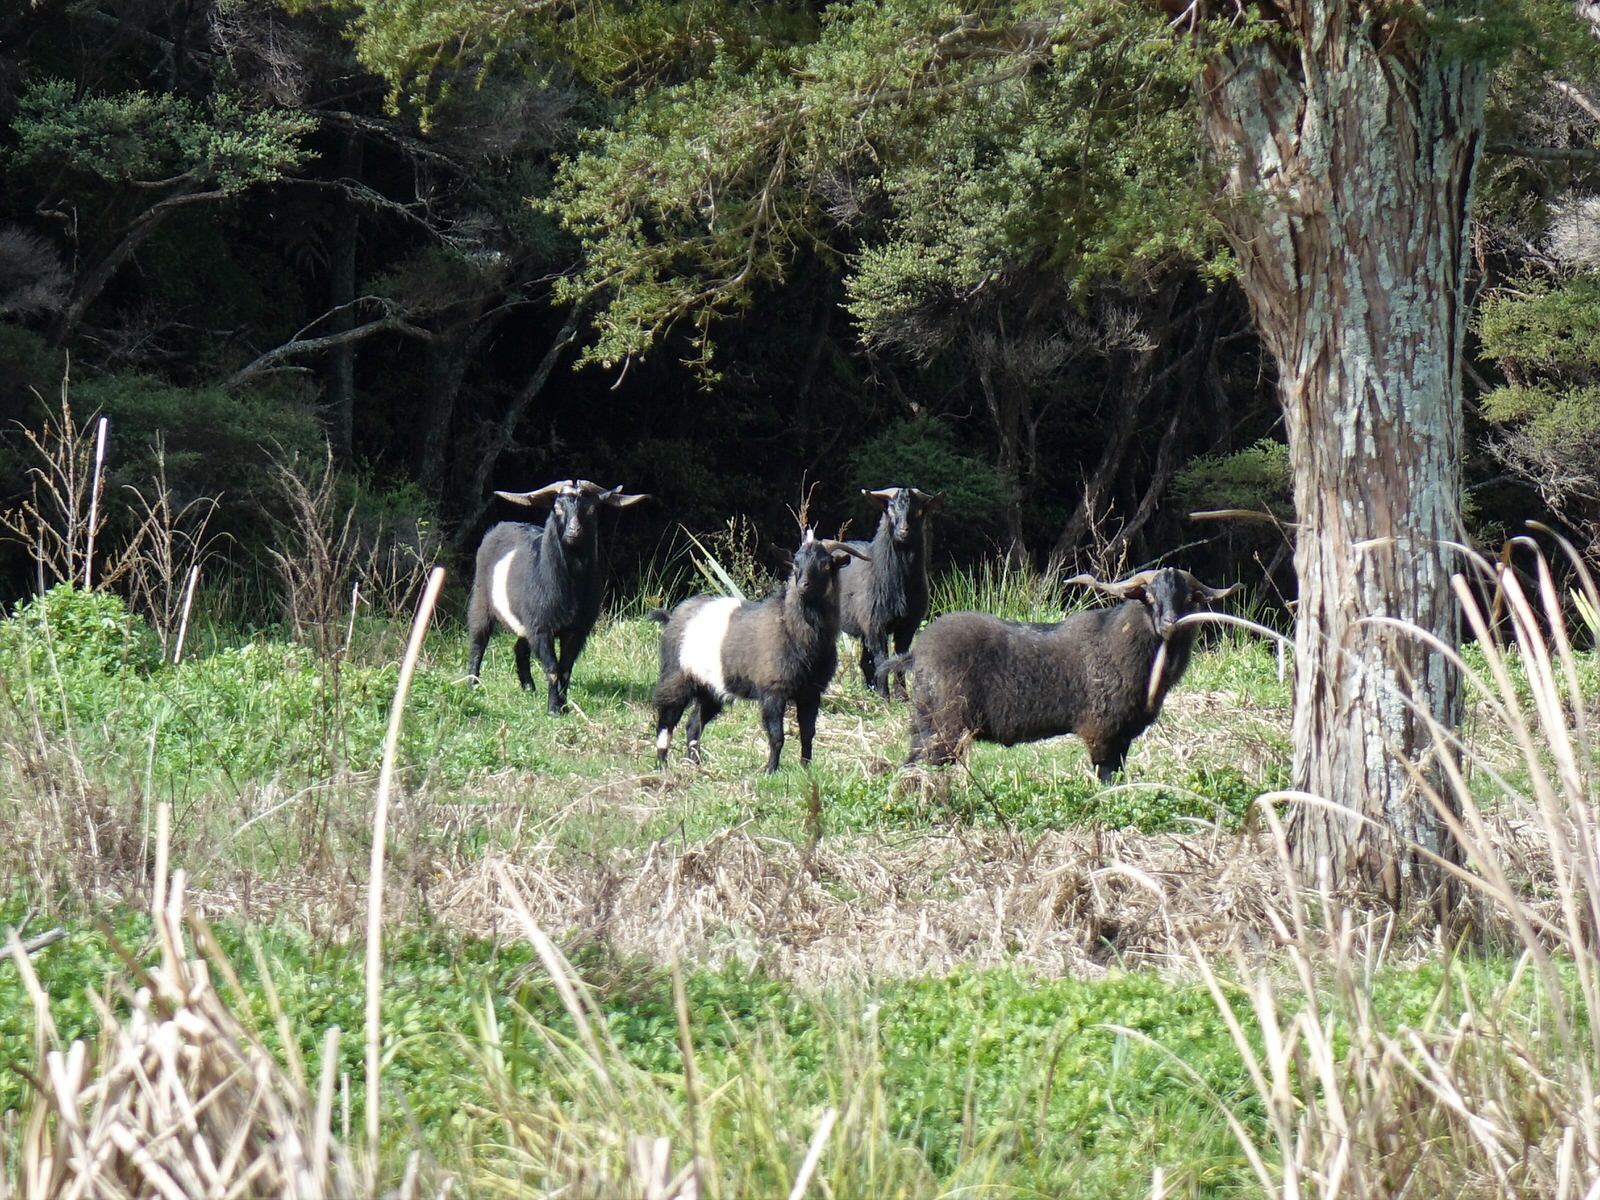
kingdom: Animalia
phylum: Chordata
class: Mammalia
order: Artiodactyla
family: Bovidae
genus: Capra
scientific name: Capra hircus
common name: Domestic goat
